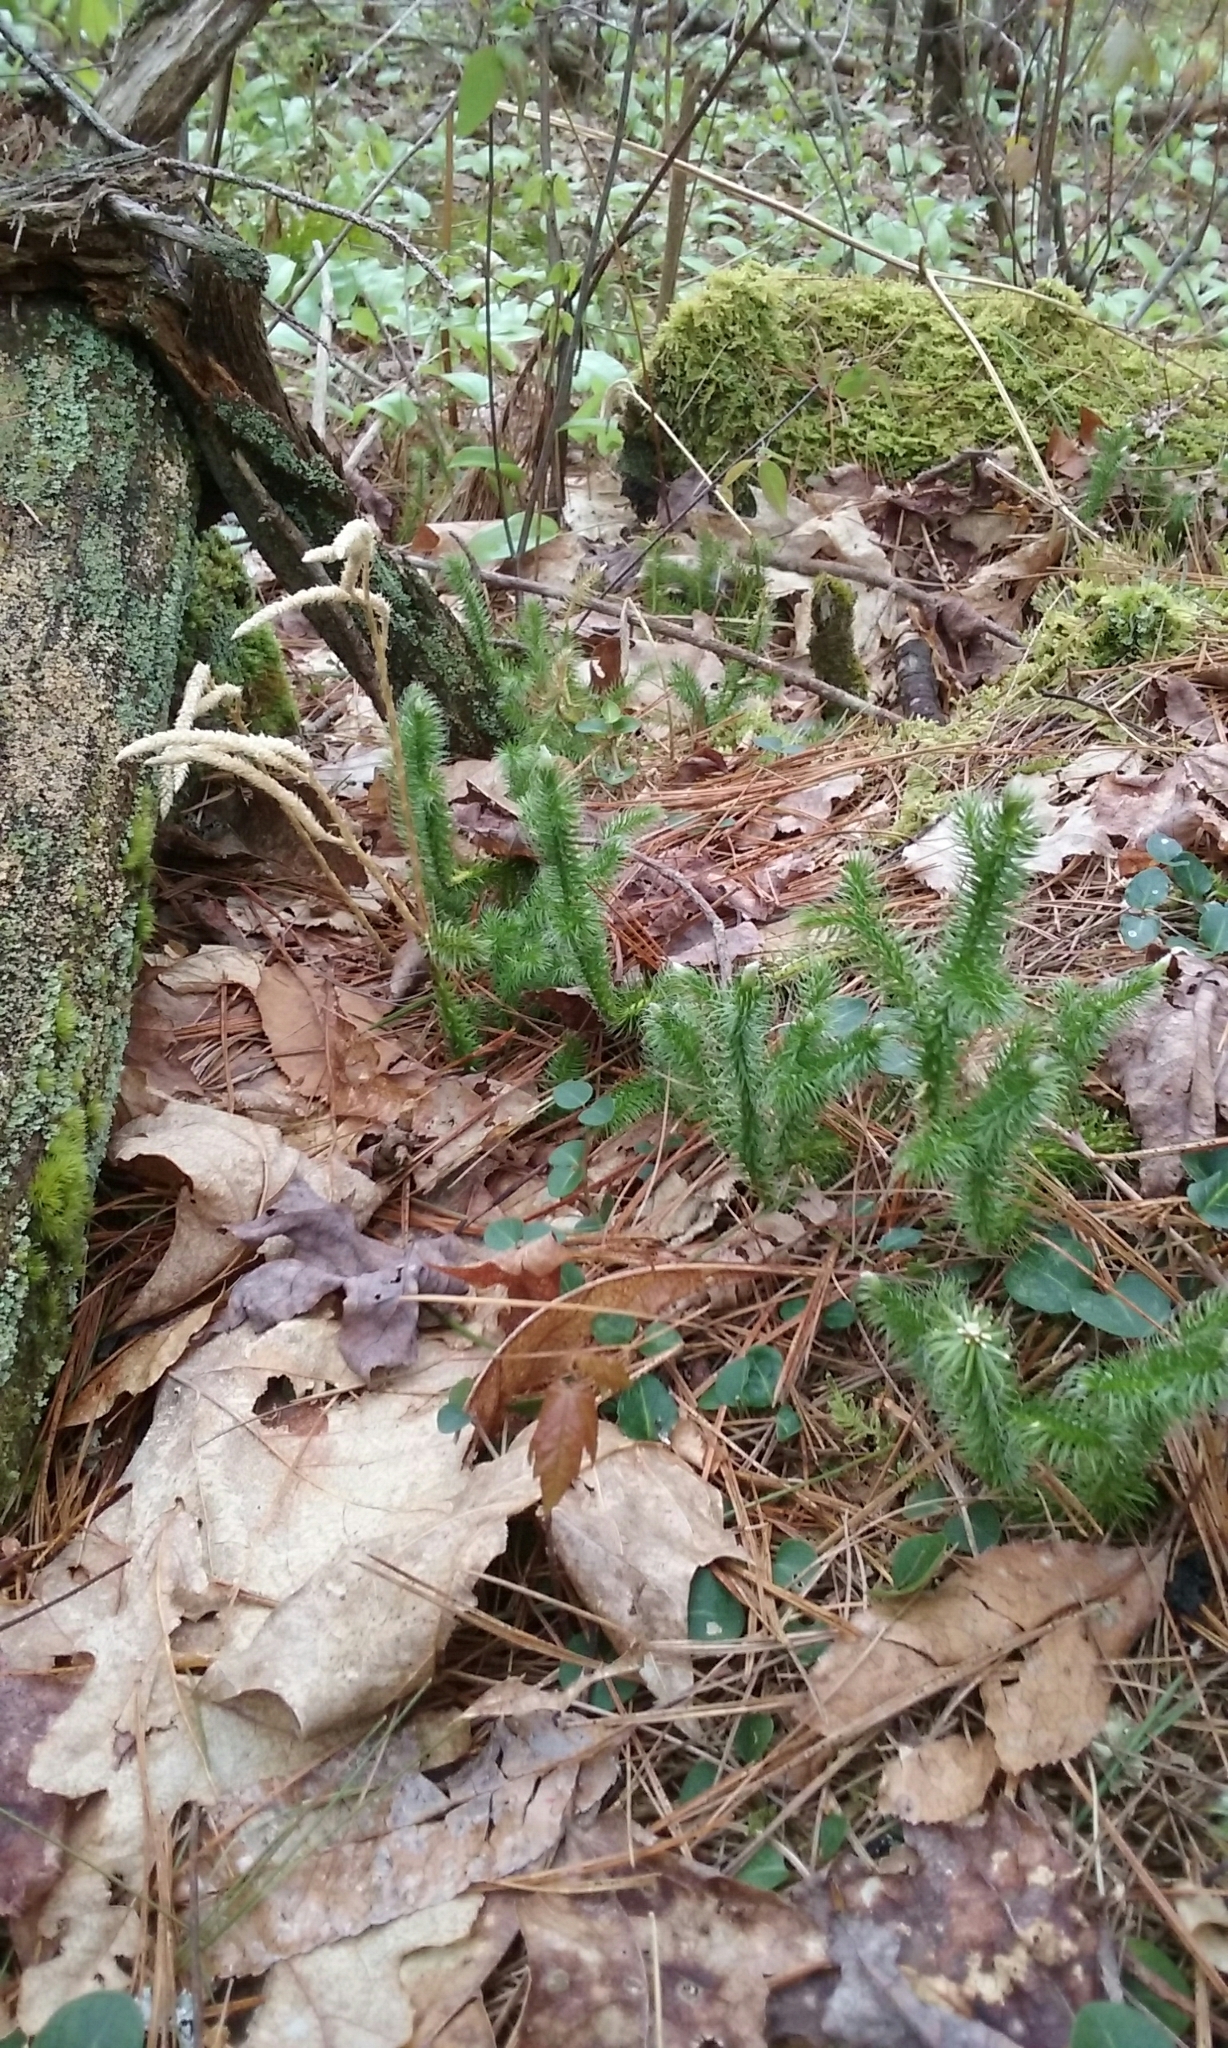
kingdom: Plantae
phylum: Tracheophyta
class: Lycopodiopsida
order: Lycopodiales
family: Lycopodiaceae
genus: Lycopodium
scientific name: Lycopodium clavatum
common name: Stag's-horn clubmoss
